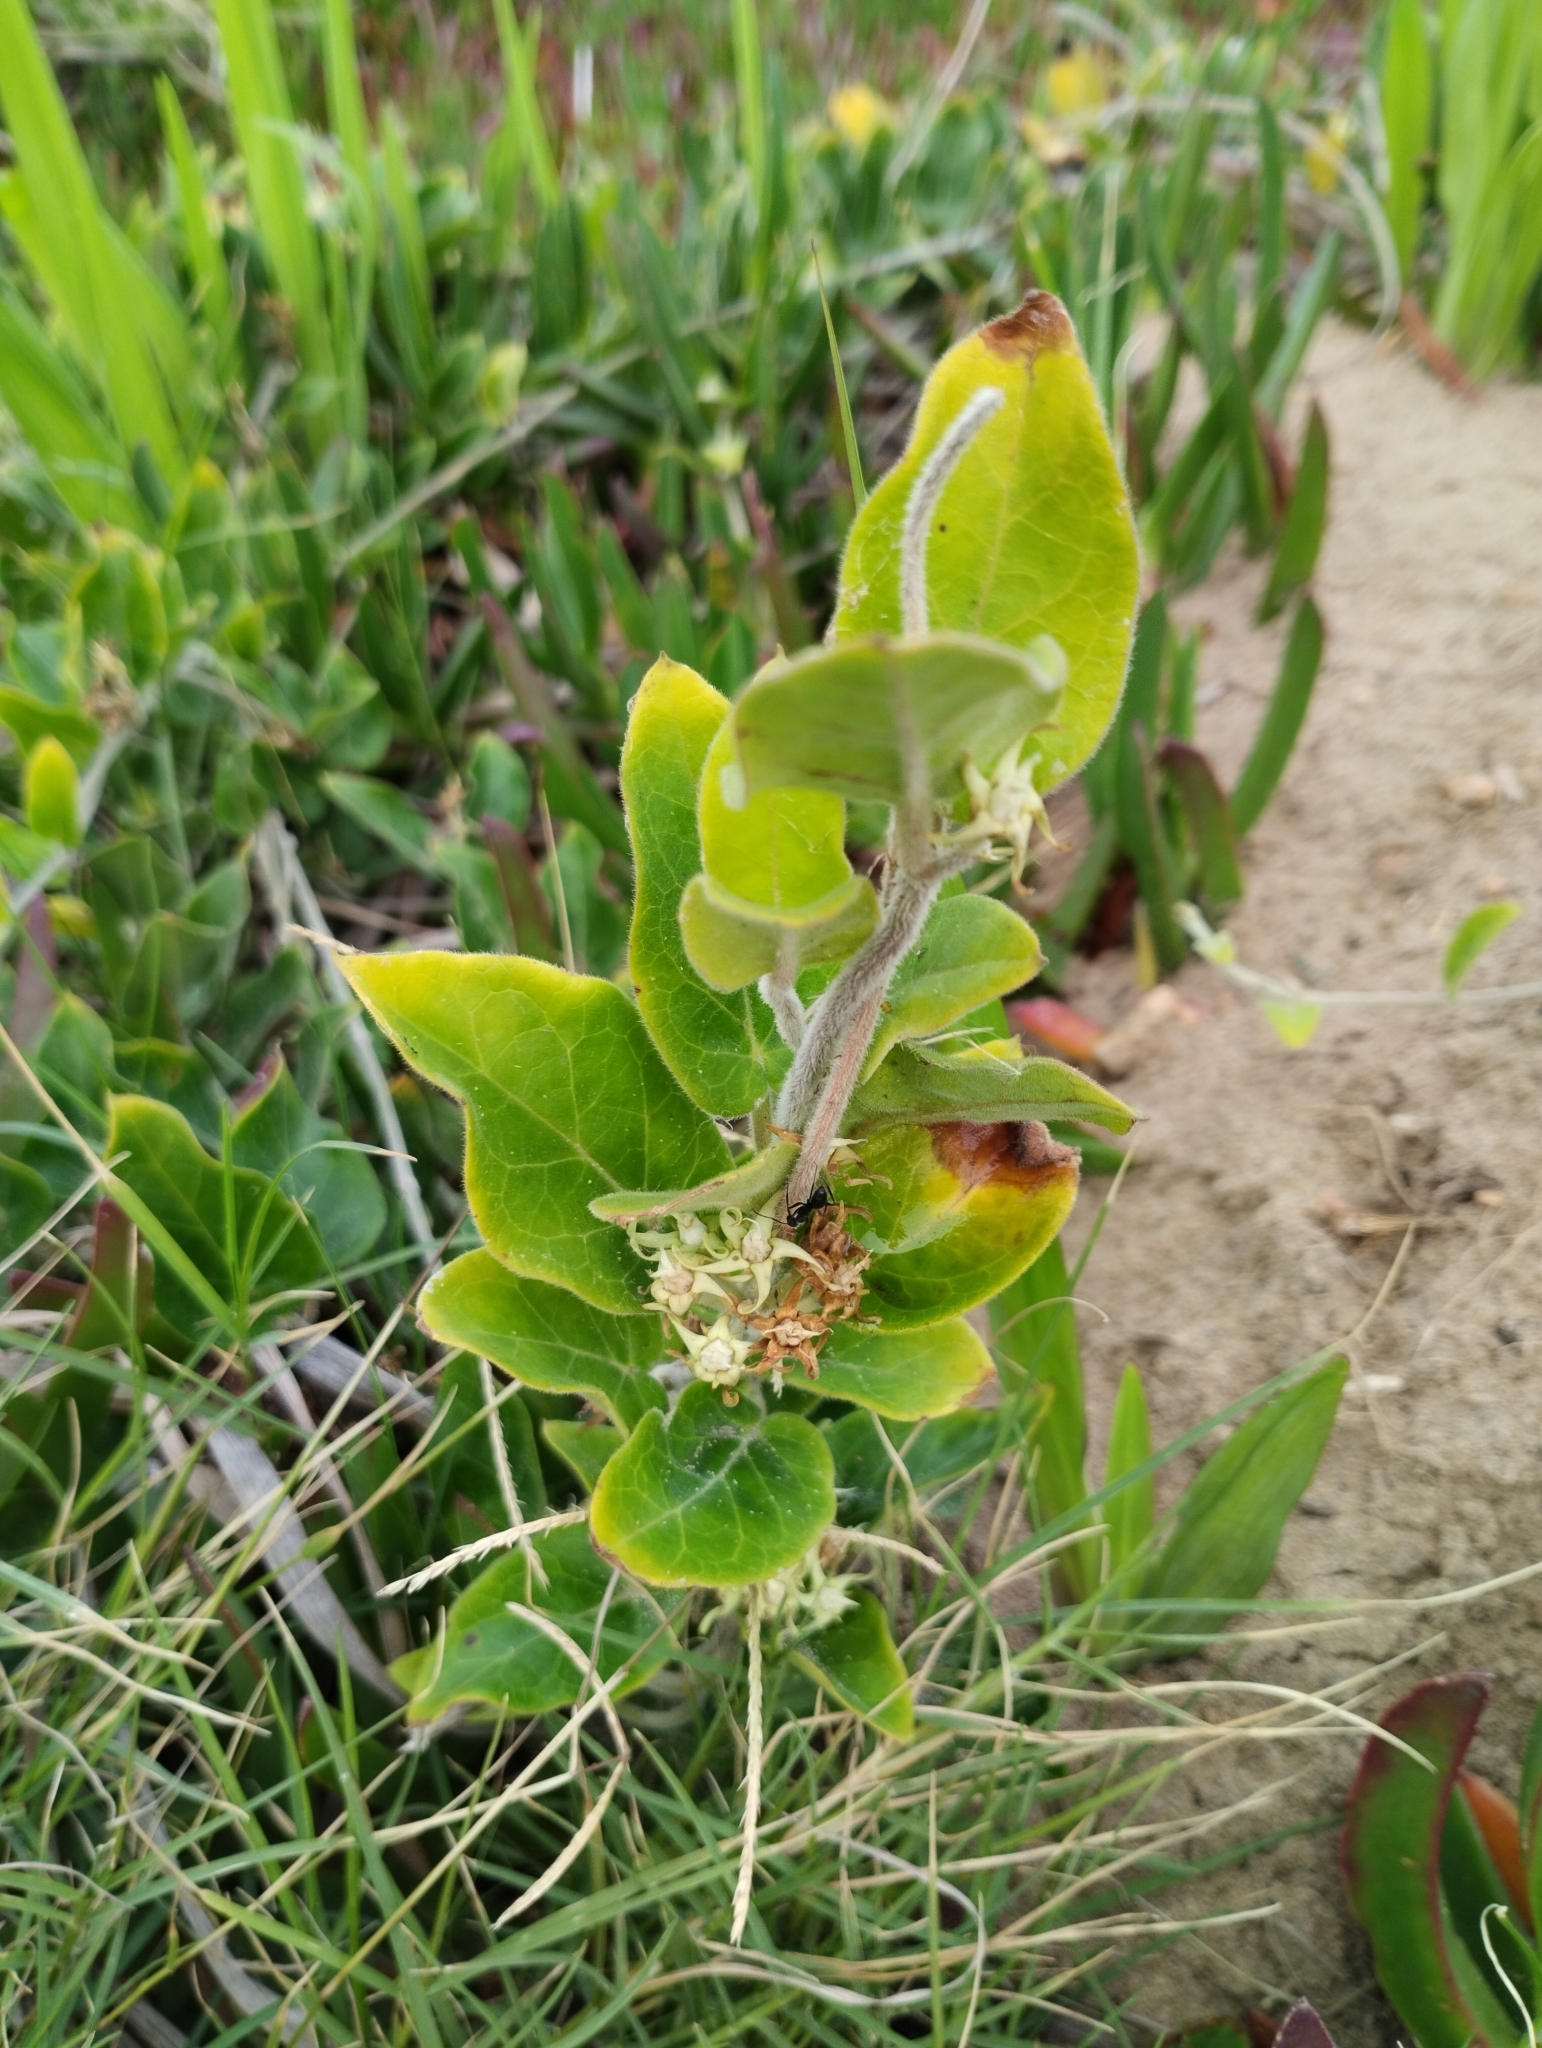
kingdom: Plantae
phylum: Tracheophyta
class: Magnoliopsida
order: Gentianales
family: Apocynaceae
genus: Oxypetalum
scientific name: Oxypetalum tomentosum
